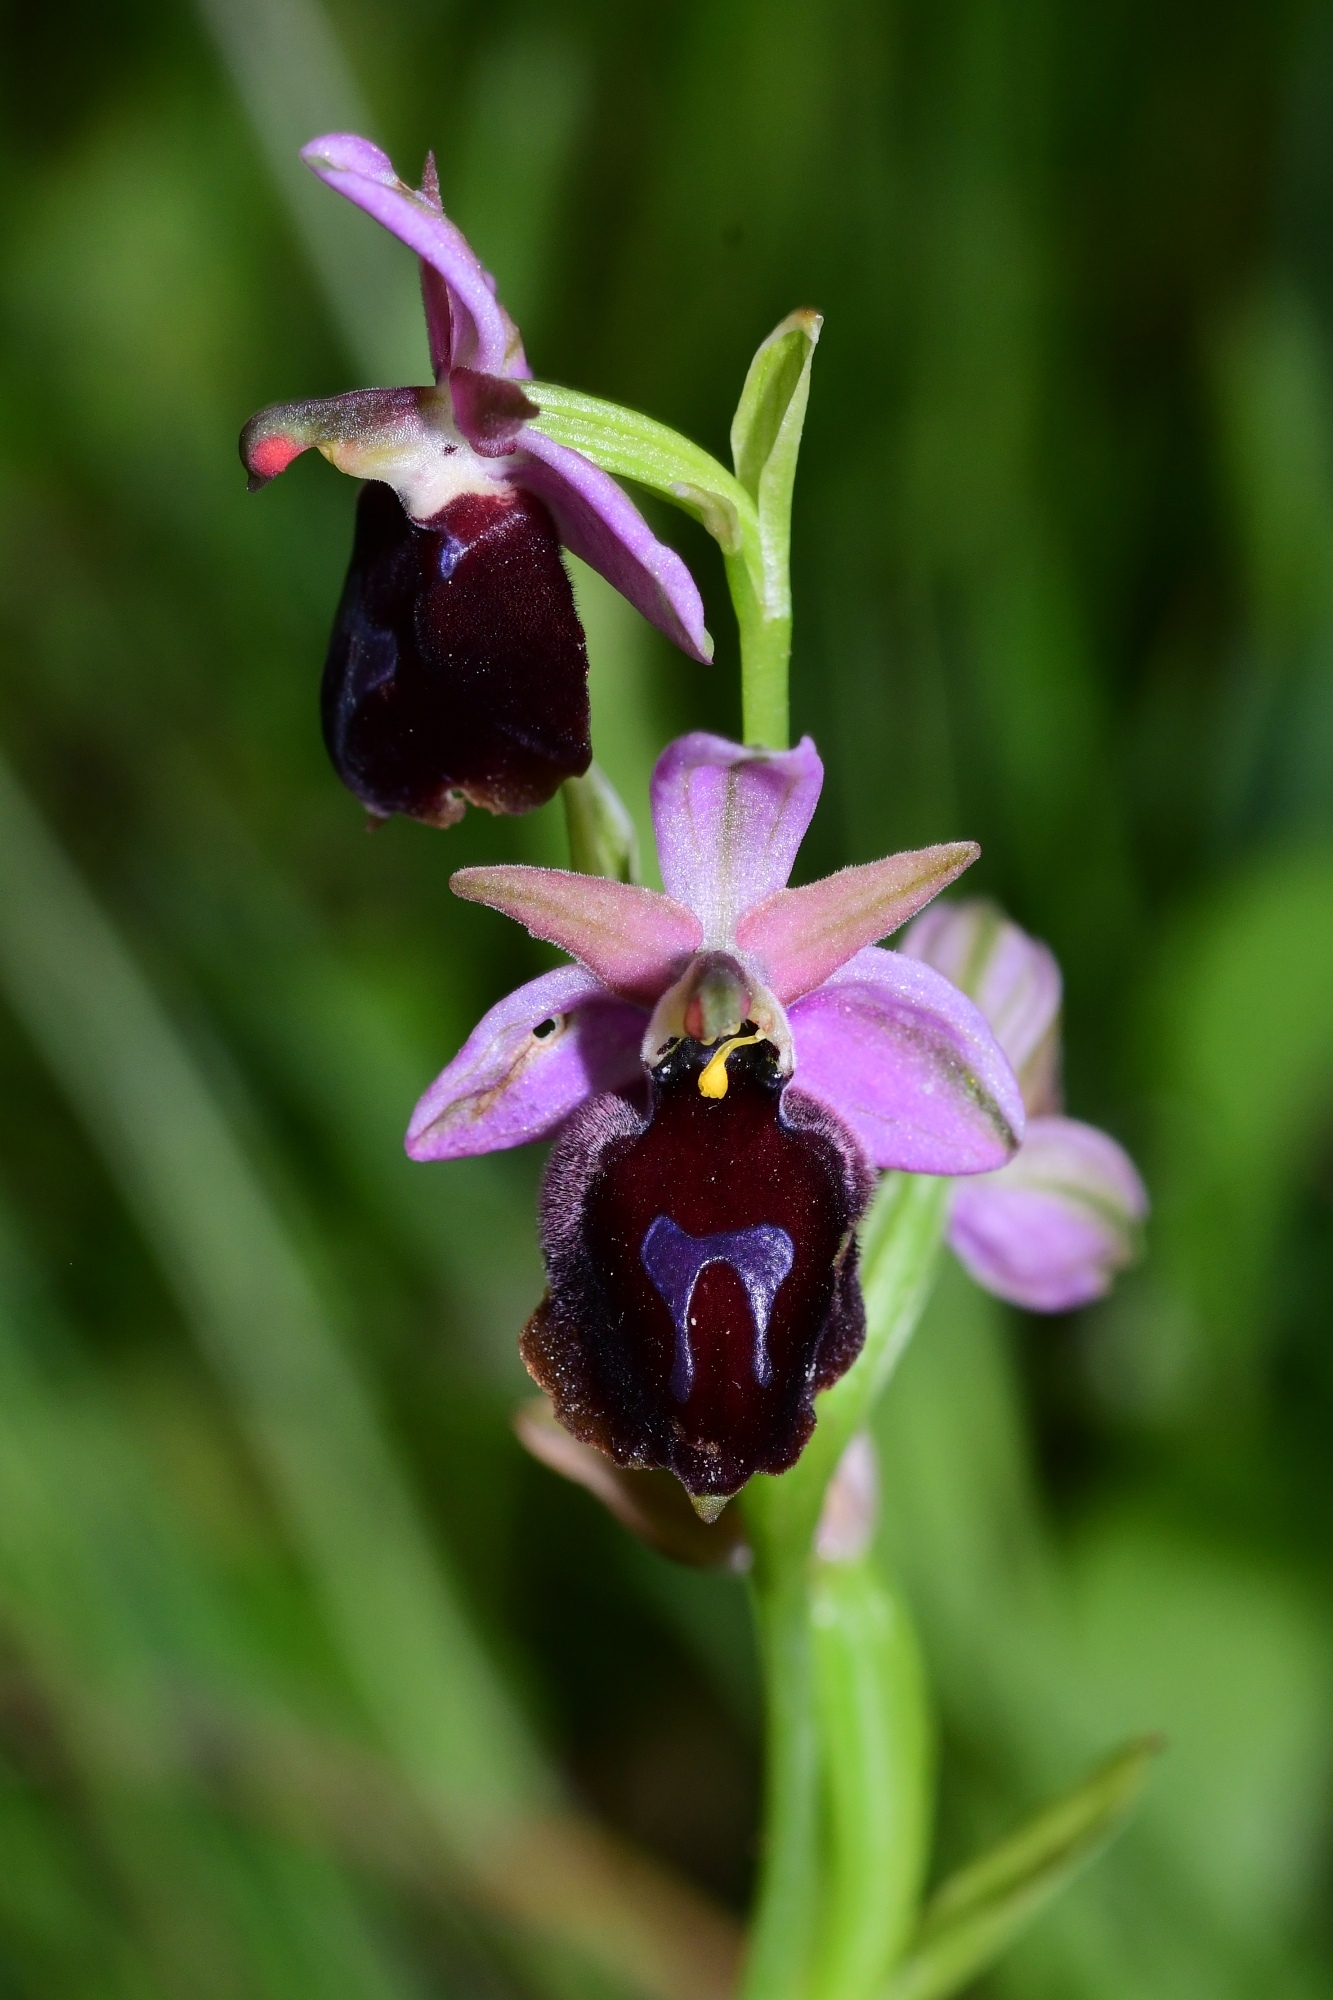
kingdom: Plantae
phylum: Tracheophyta
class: Liliopsida
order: Asparagales
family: Orchidaceae
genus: Ophrys
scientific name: Ophrys ferrum-equinum
